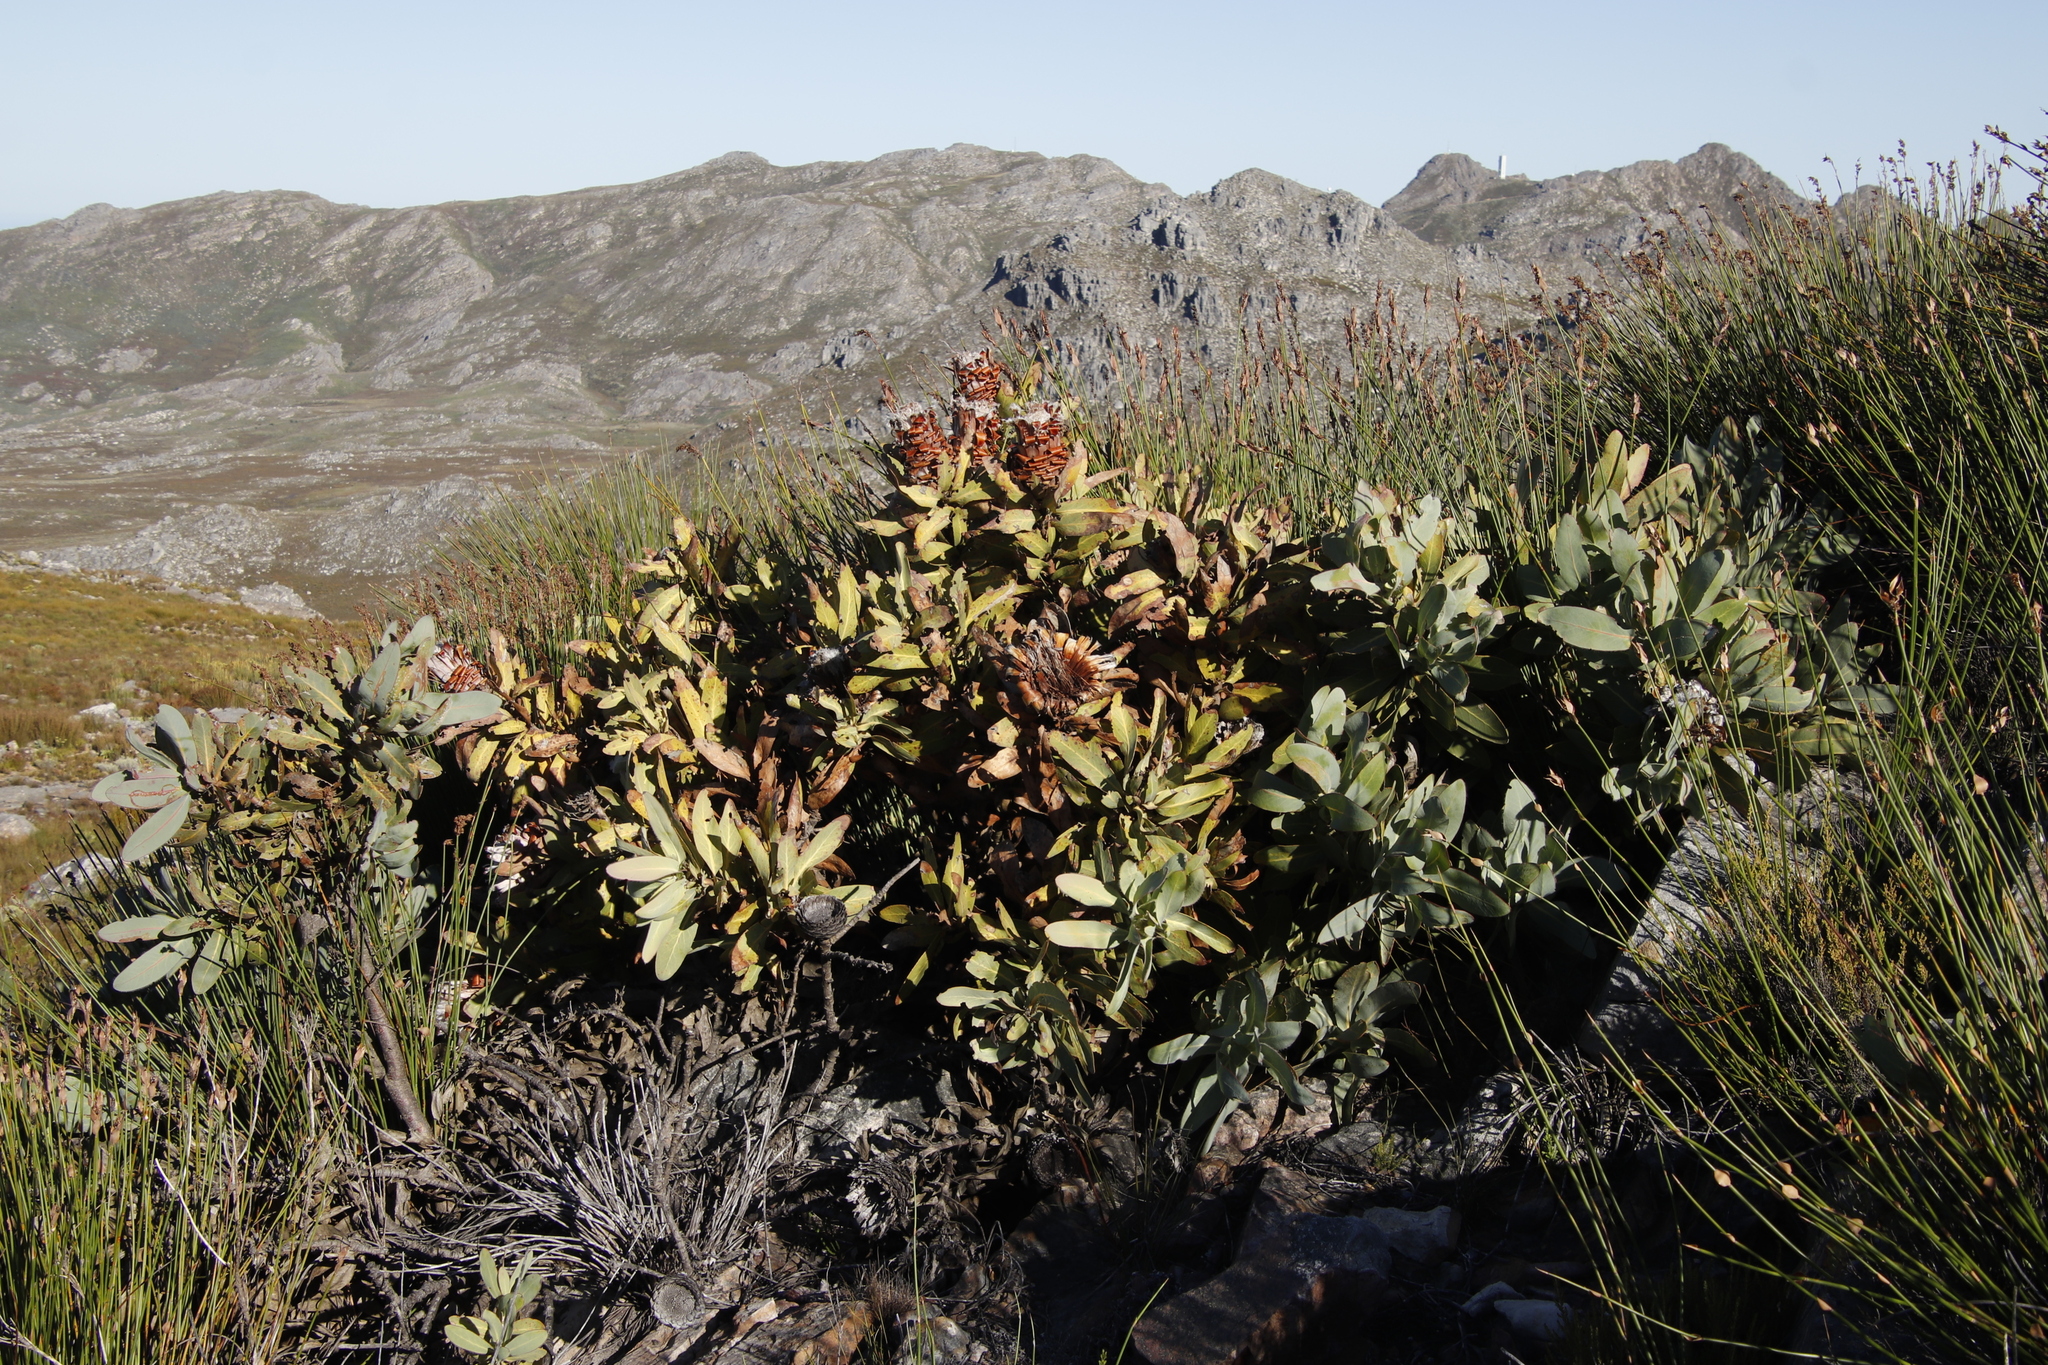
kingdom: Plantae
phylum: Tracheophyta
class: Magnoliopsida
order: Proteales
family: Proteaceae
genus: Protea
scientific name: Protea magnifica
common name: Bearded sugarbush
